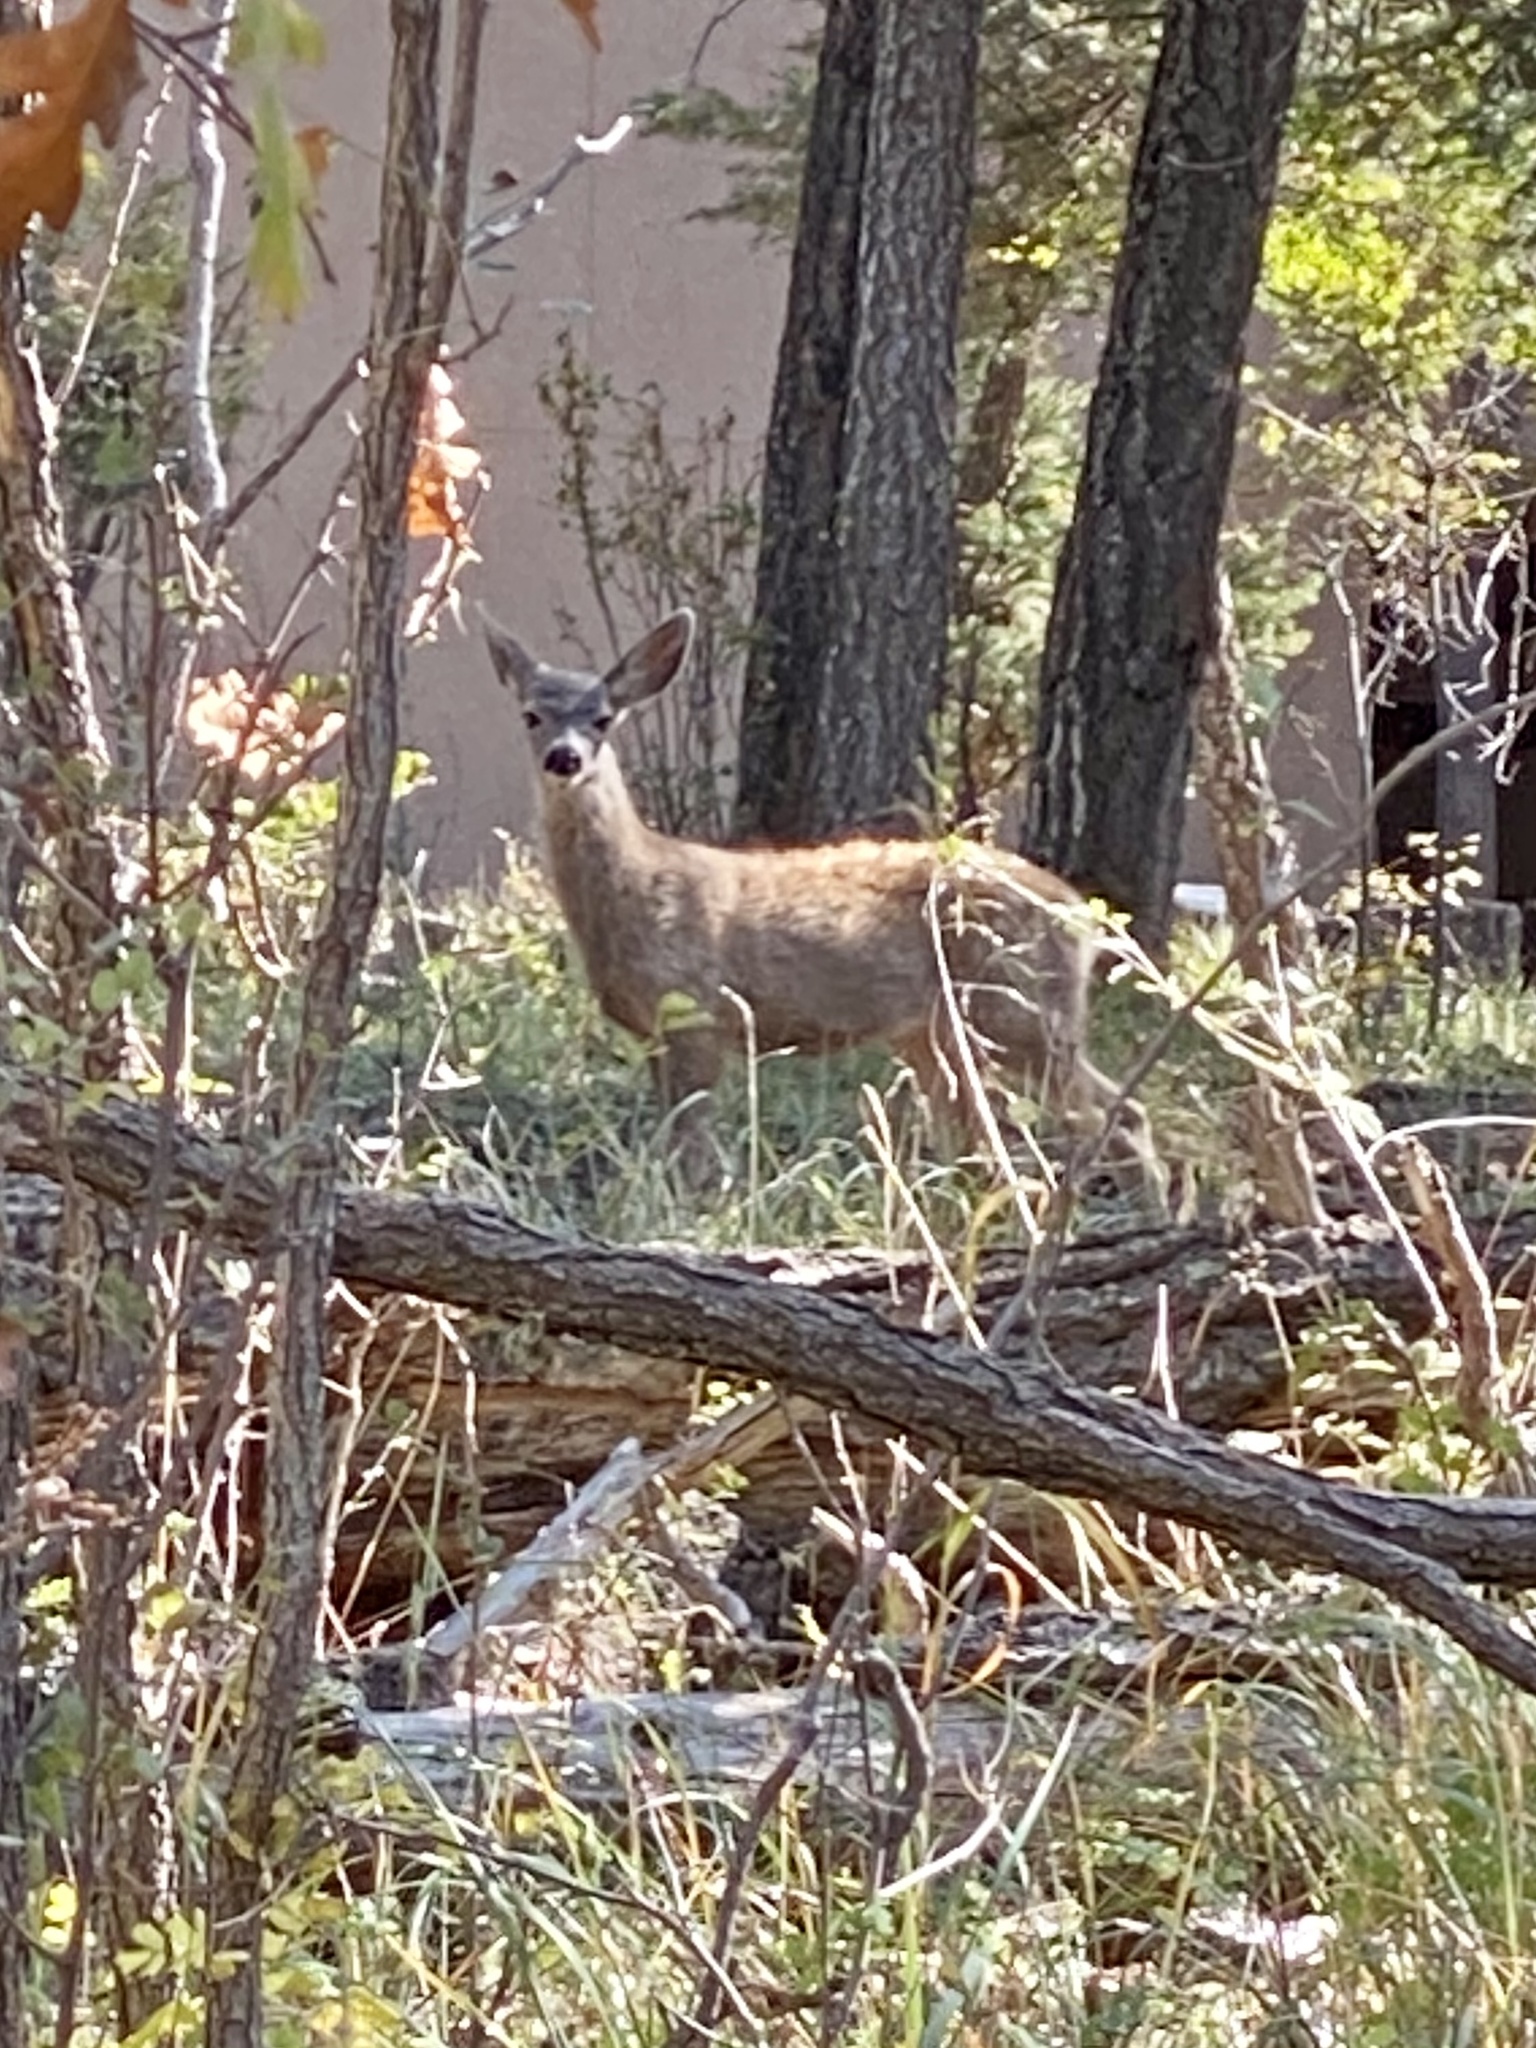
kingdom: Animalia
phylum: Chordata
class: Mammalia
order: Artiodactyla
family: Cervidae
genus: Odocoileus
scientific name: Odocoileus hemionus
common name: Mule deer
